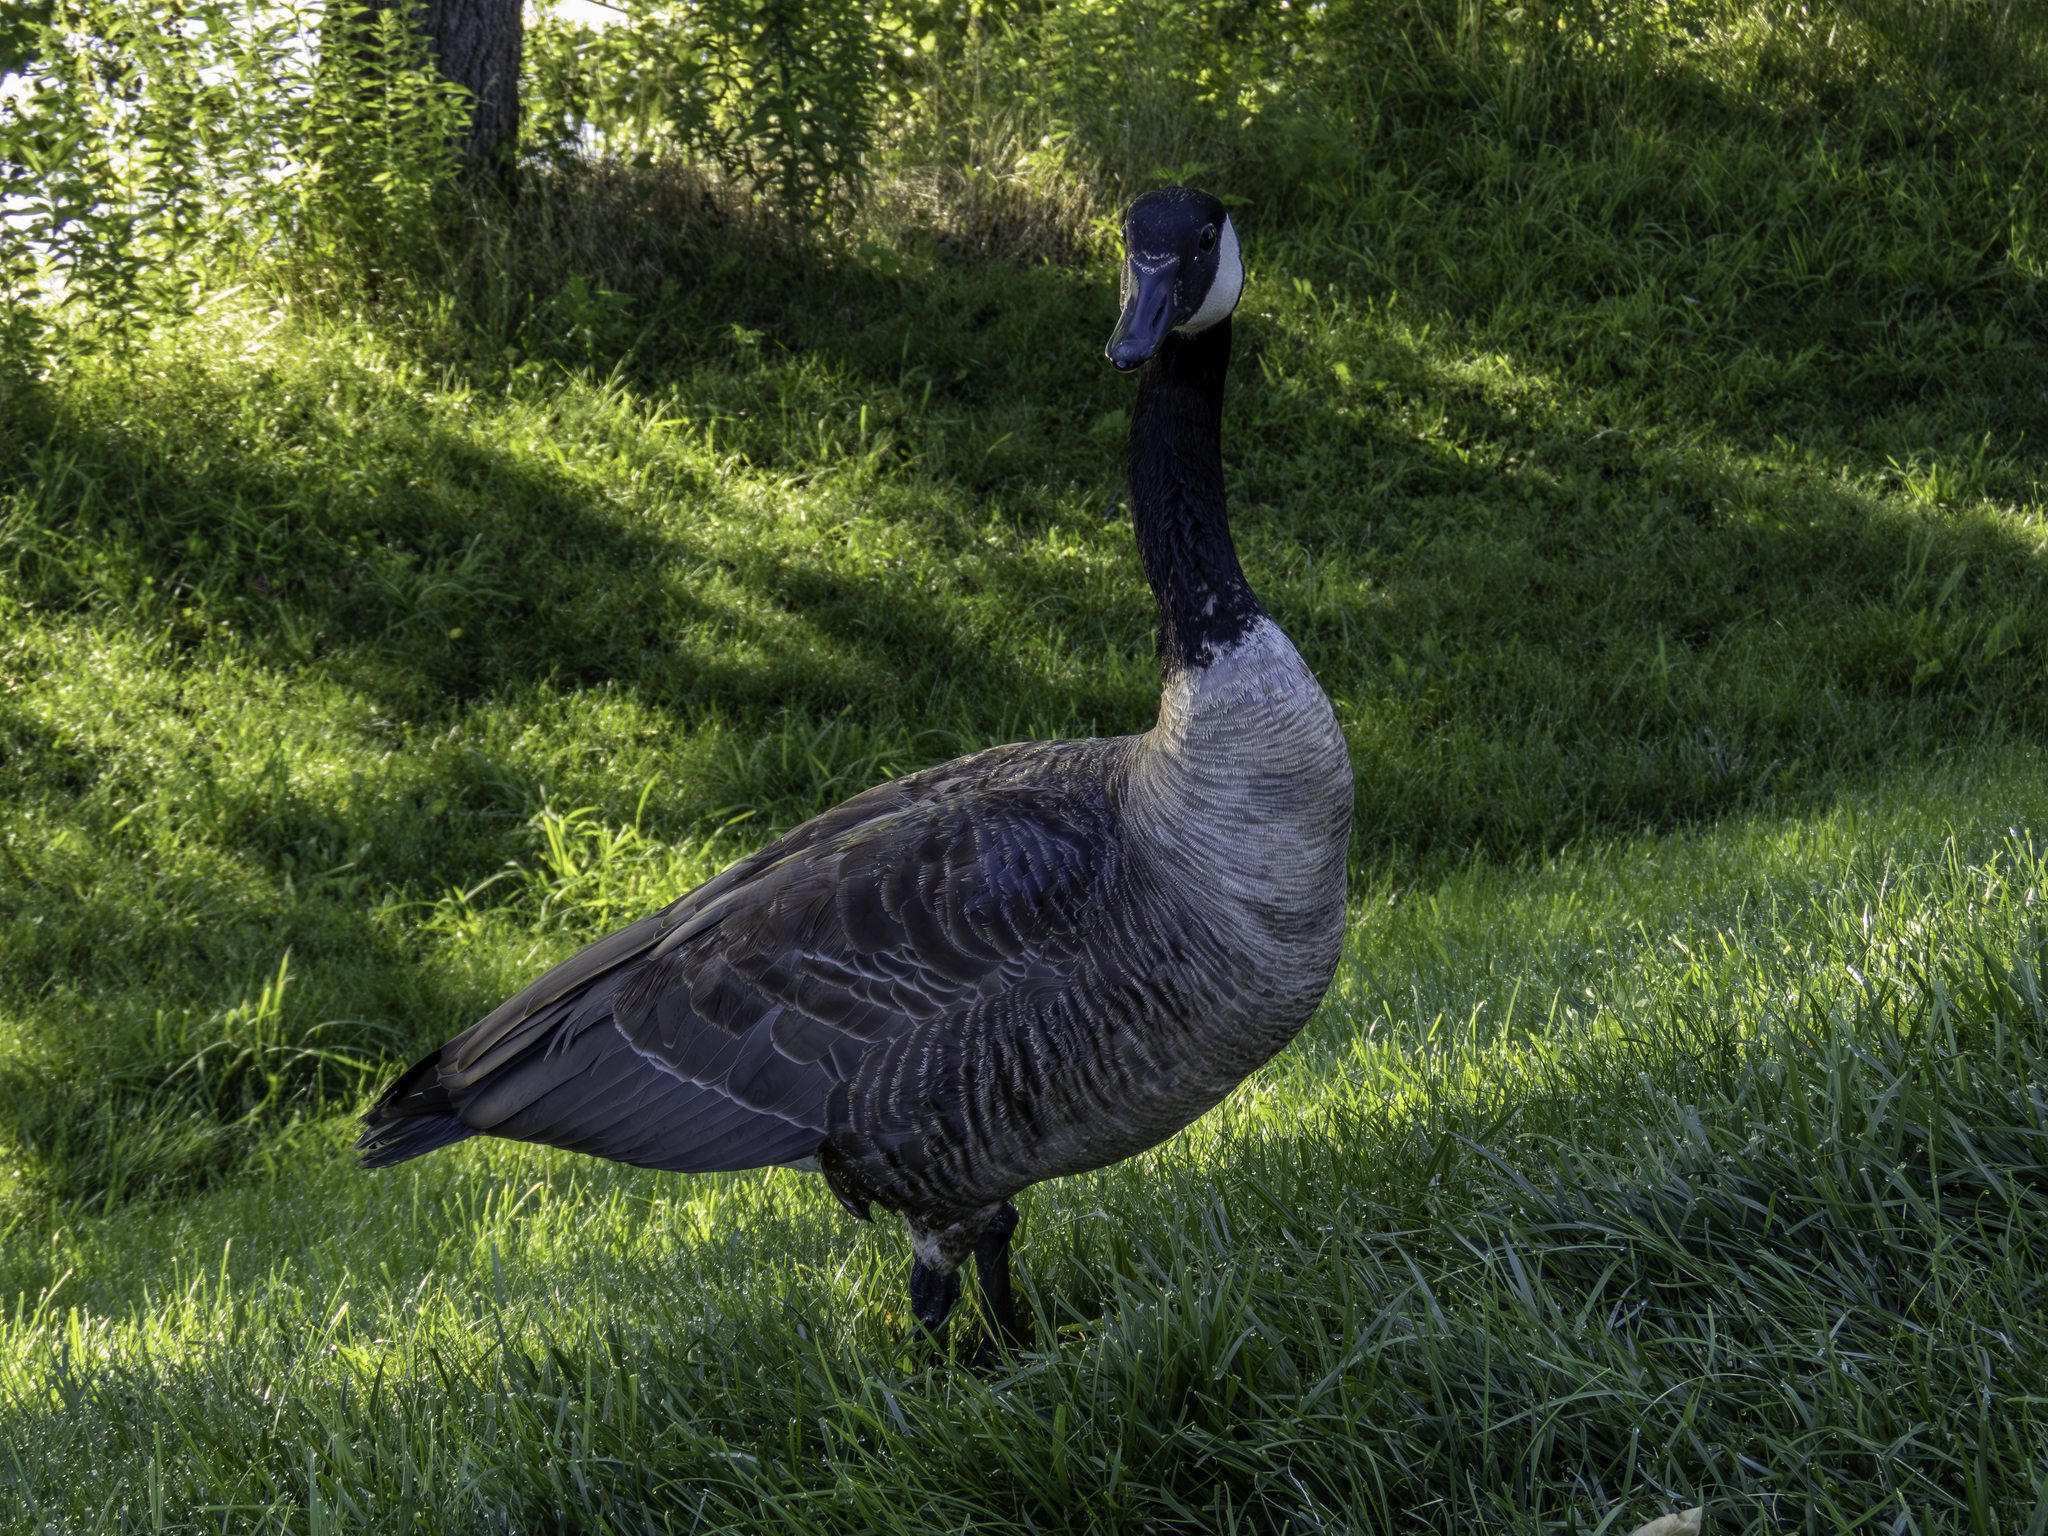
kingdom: Animalia
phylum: Chordata
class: Aves
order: Anseriformes
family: Anatidae
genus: Branta
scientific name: Branta canadensis
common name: Canada goose
